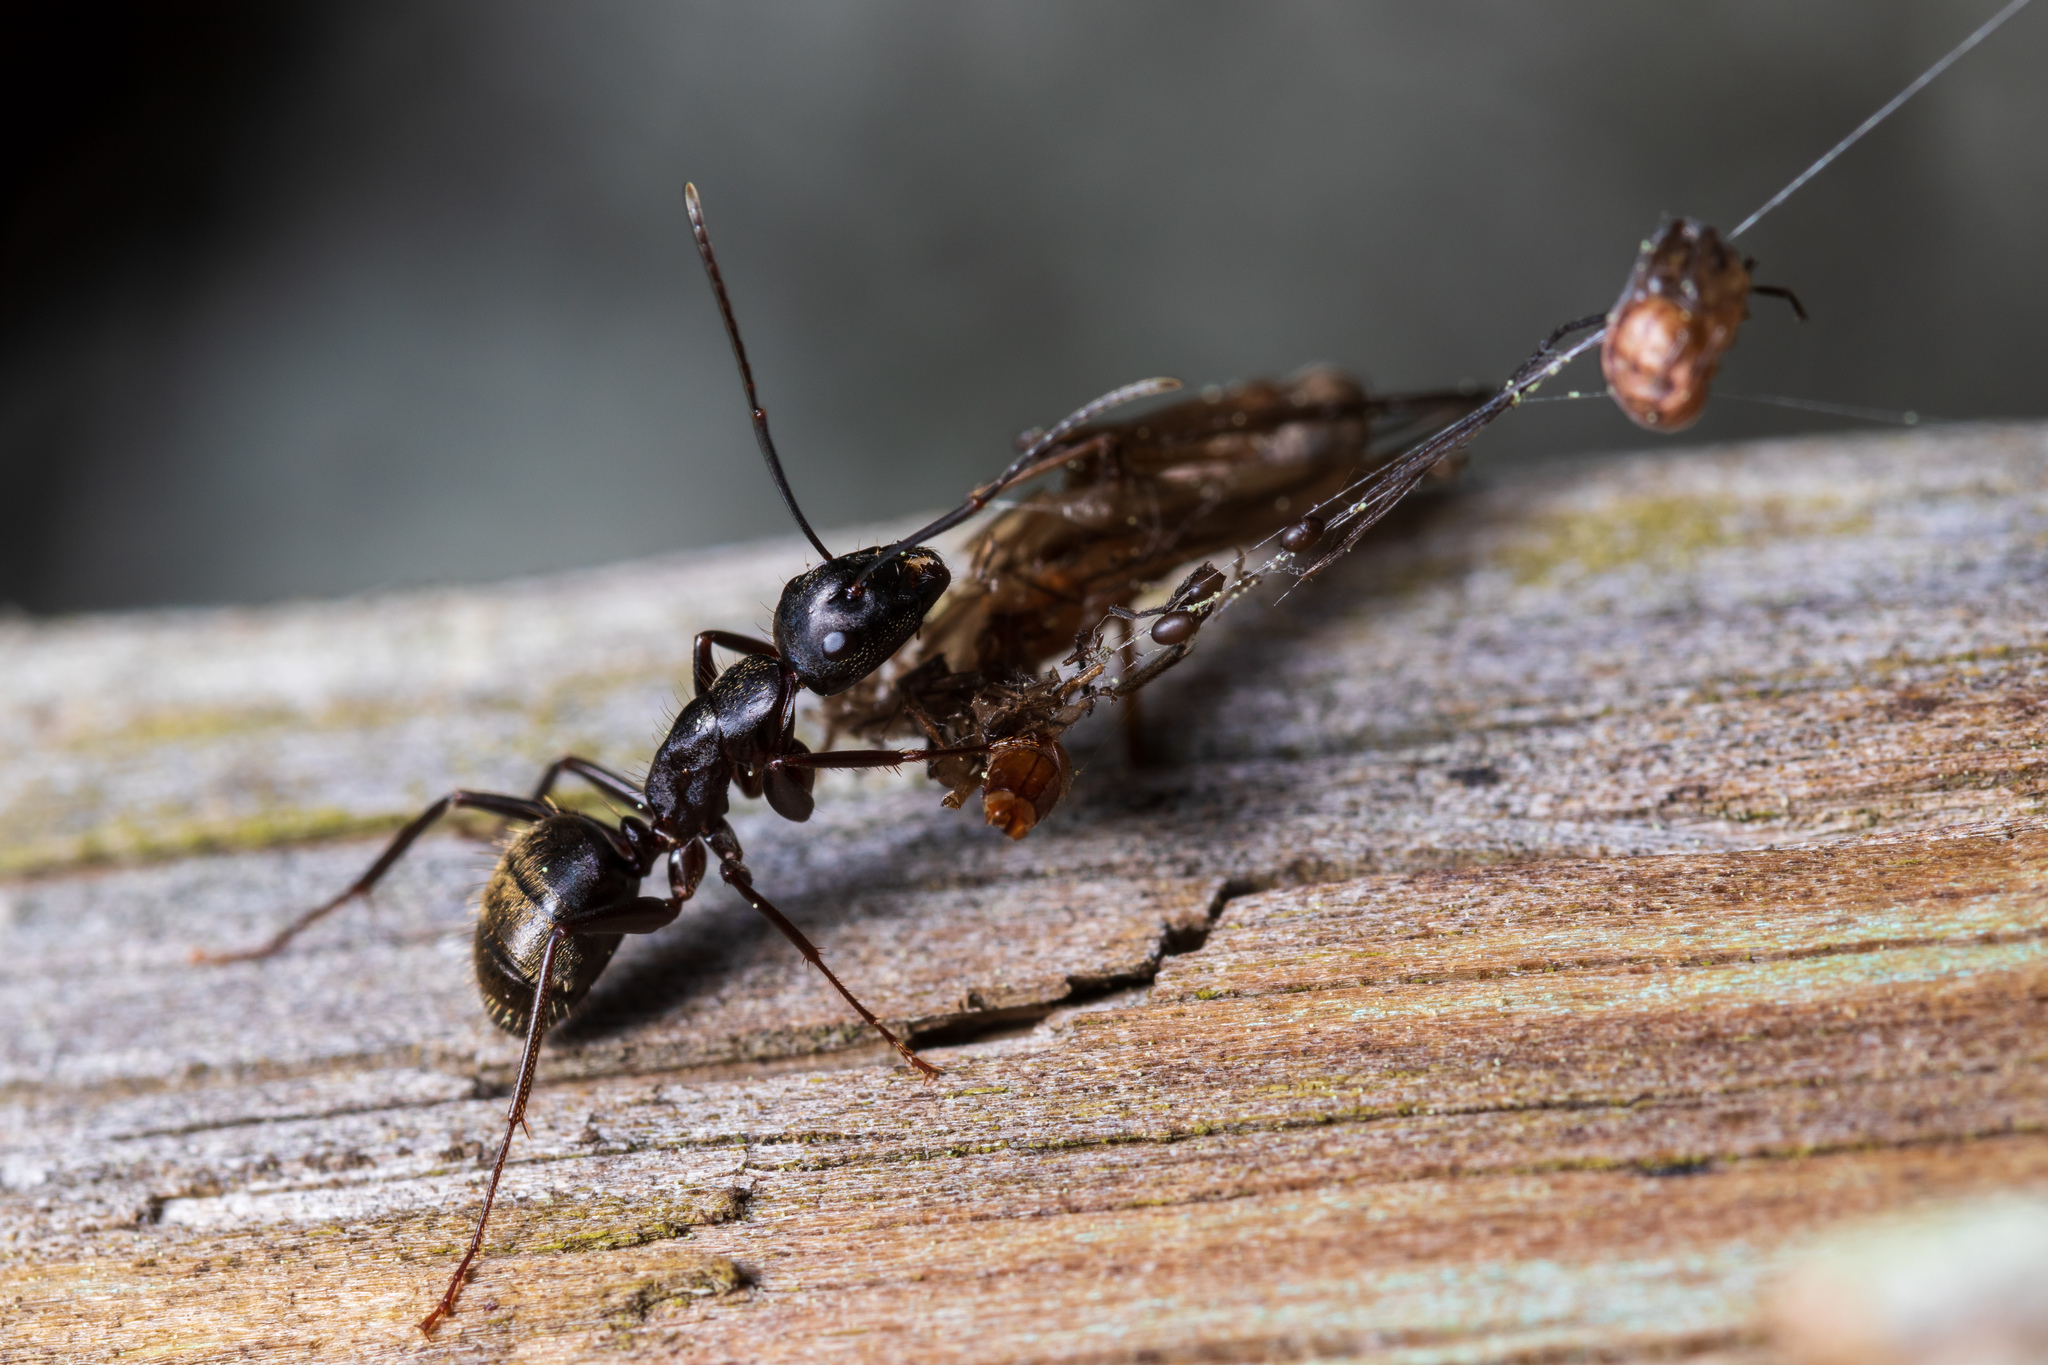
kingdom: Animalia
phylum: Arthropoda
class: Insecta
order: Hymenoptera
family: Formicidae
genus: Camponotus
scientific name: Camponotus pennsylvanicus
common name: Black carpenter ant
